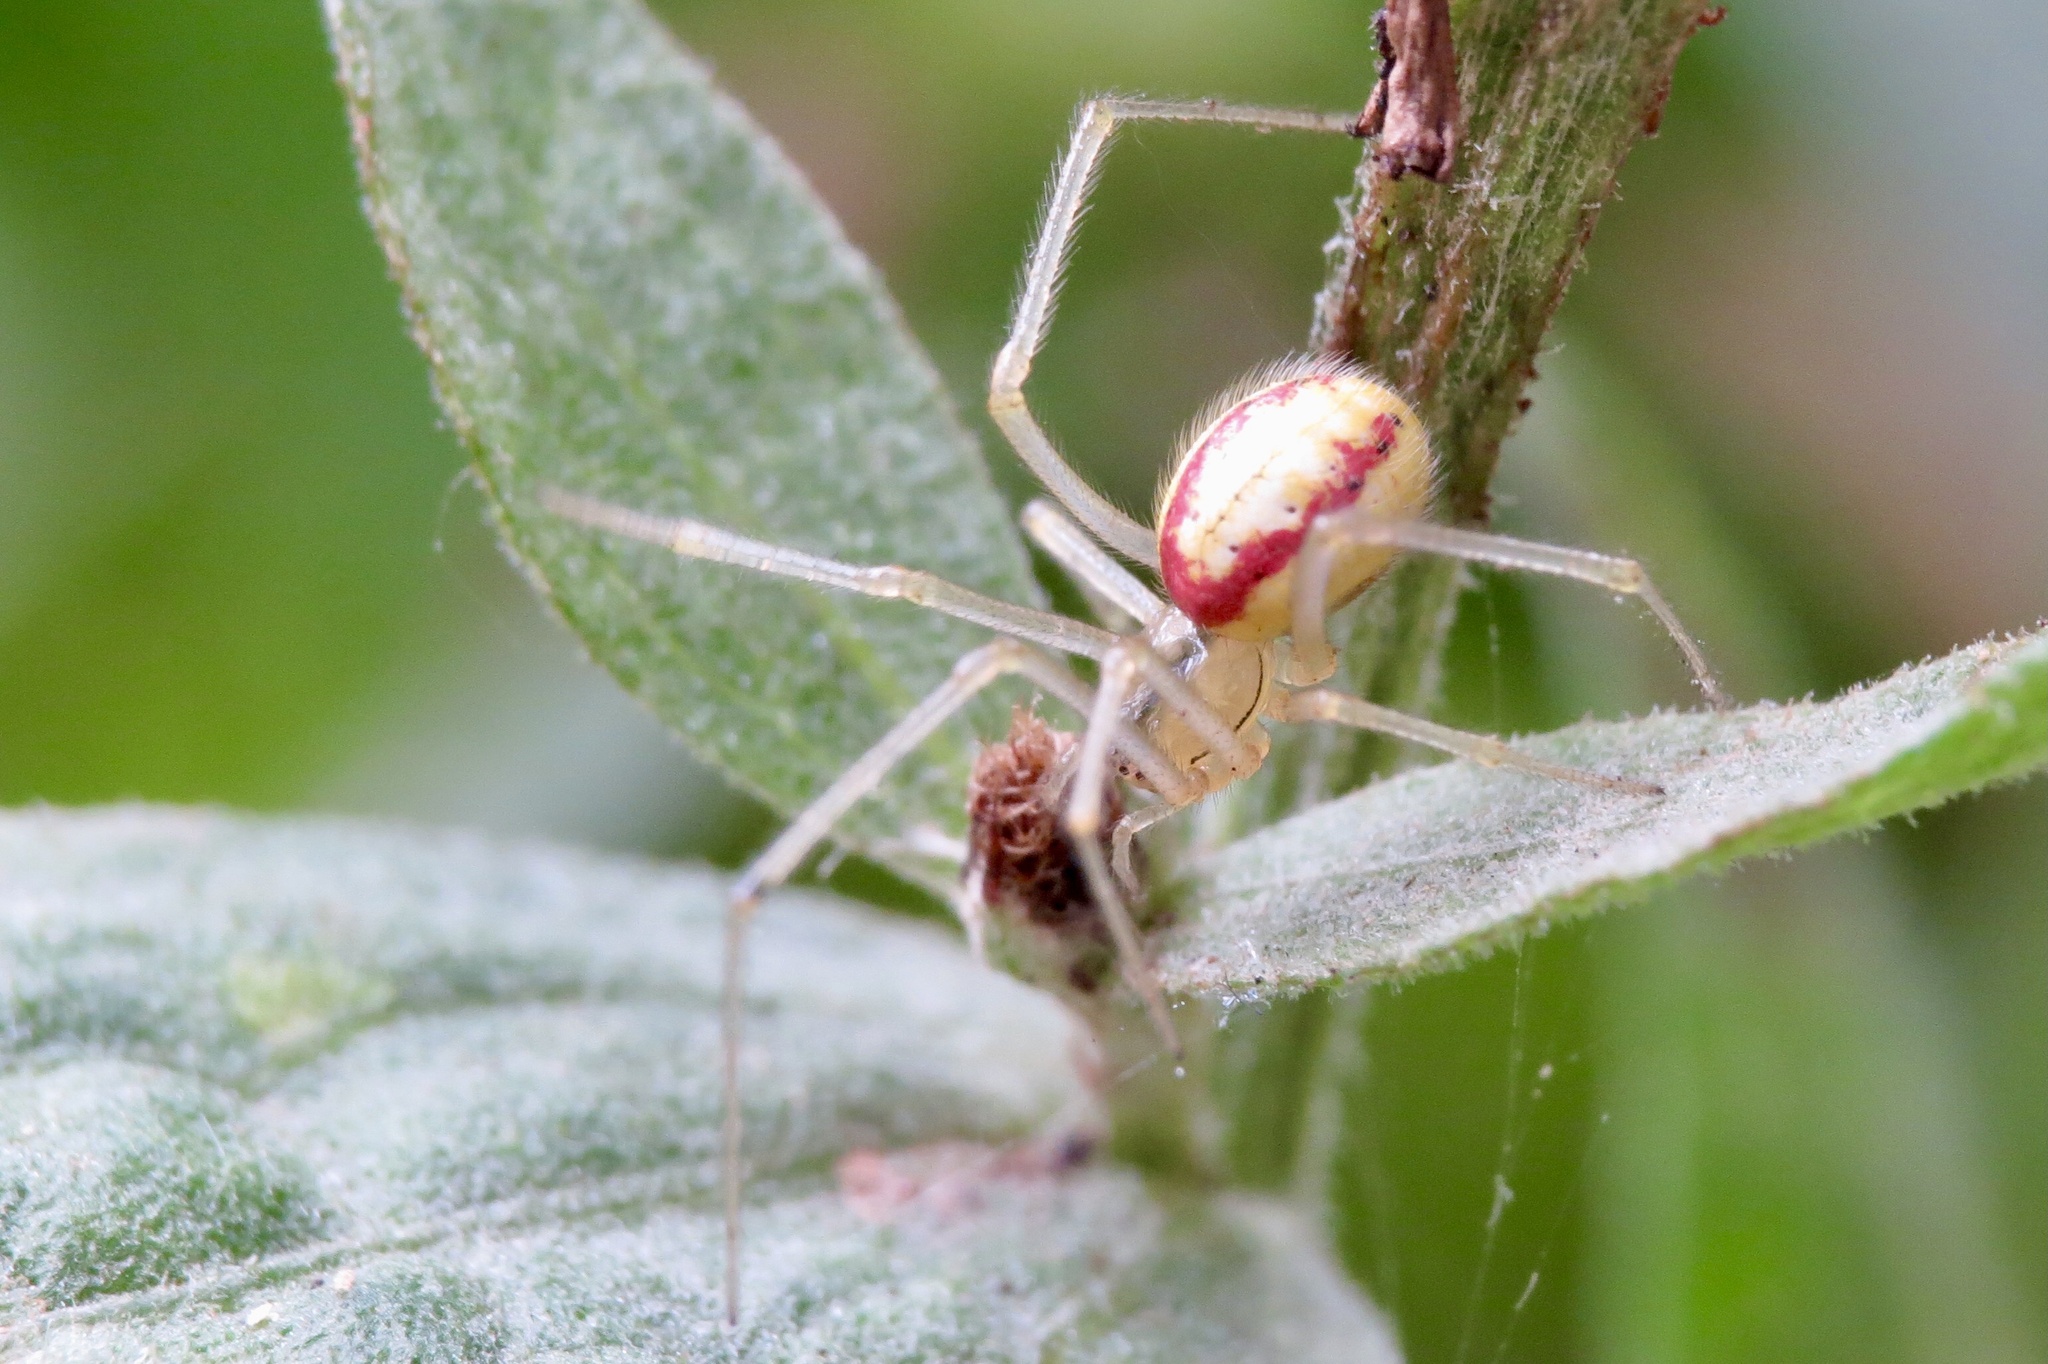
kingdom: Animalia
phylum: Arthropoda
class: Arachnida
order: Araneae
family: Theridiidae
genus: Enoplognatha
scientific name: Enoplognatha ovata
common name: Common candy-striped spider
